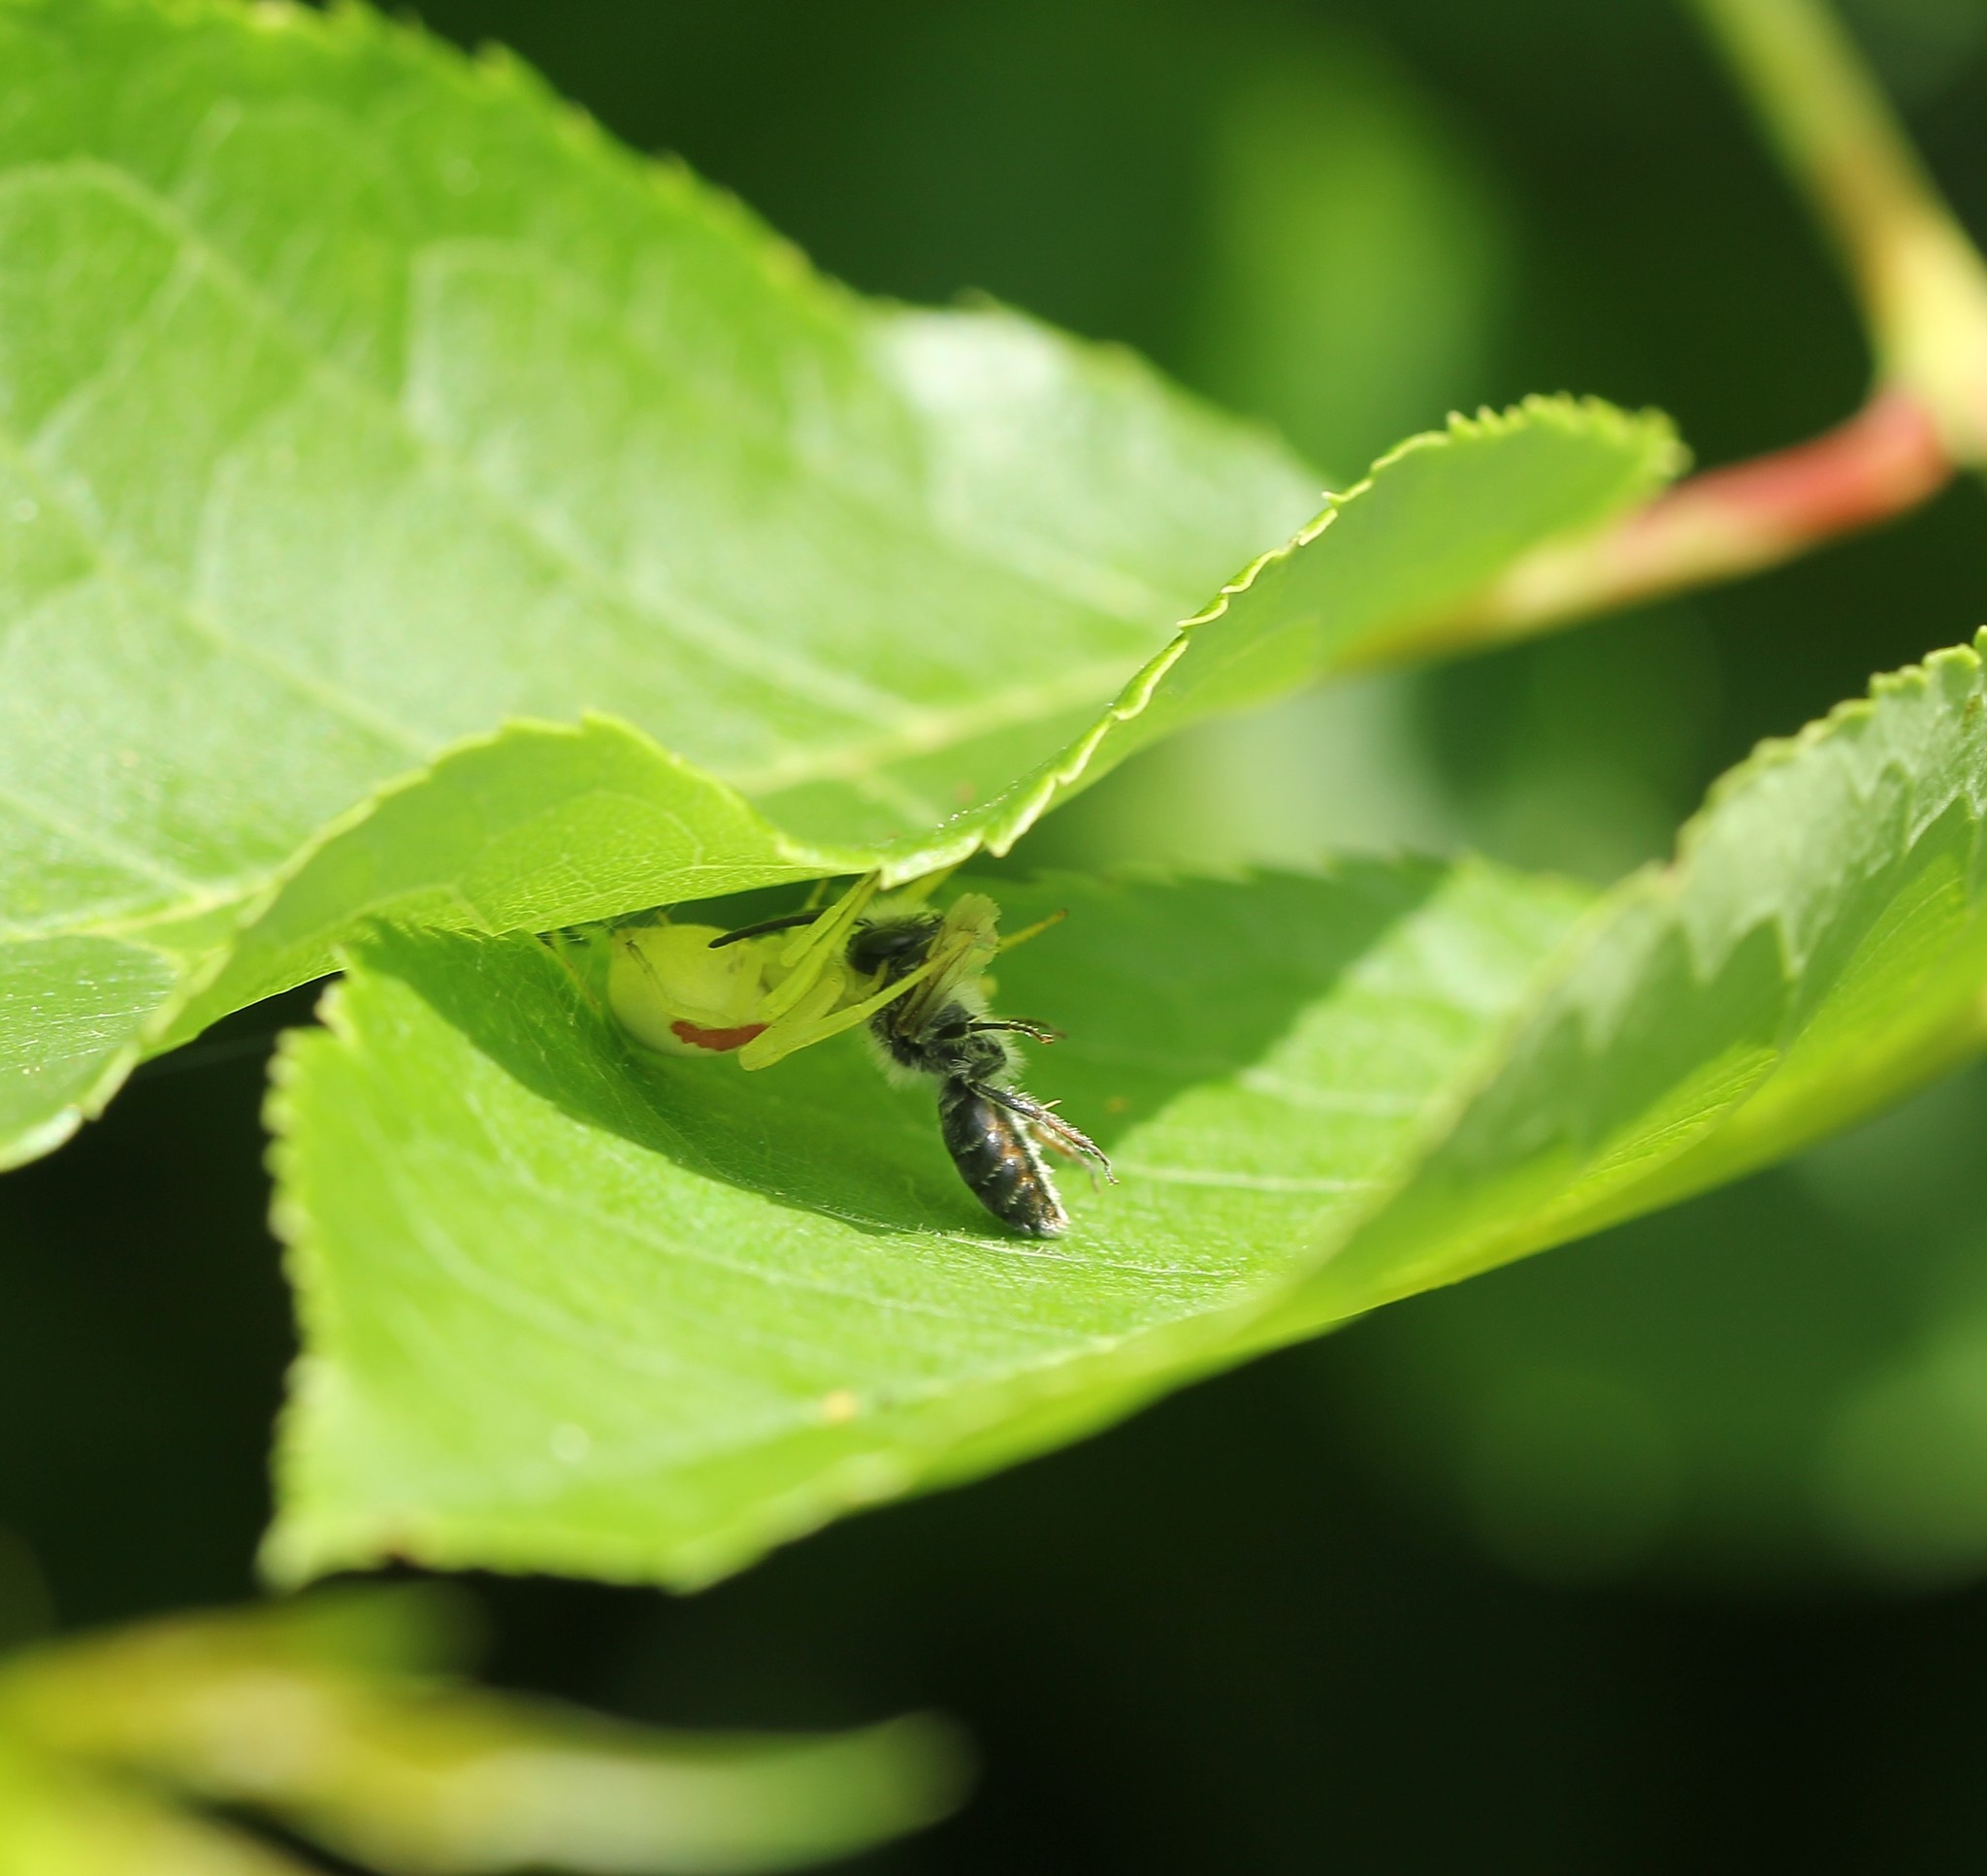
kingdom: Animalia
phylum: Arthropoda
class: Arachnida
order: Araneae
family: Thomisidae
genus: Misumena
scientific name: Misumena vatia
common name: Goldenrod crab spider
